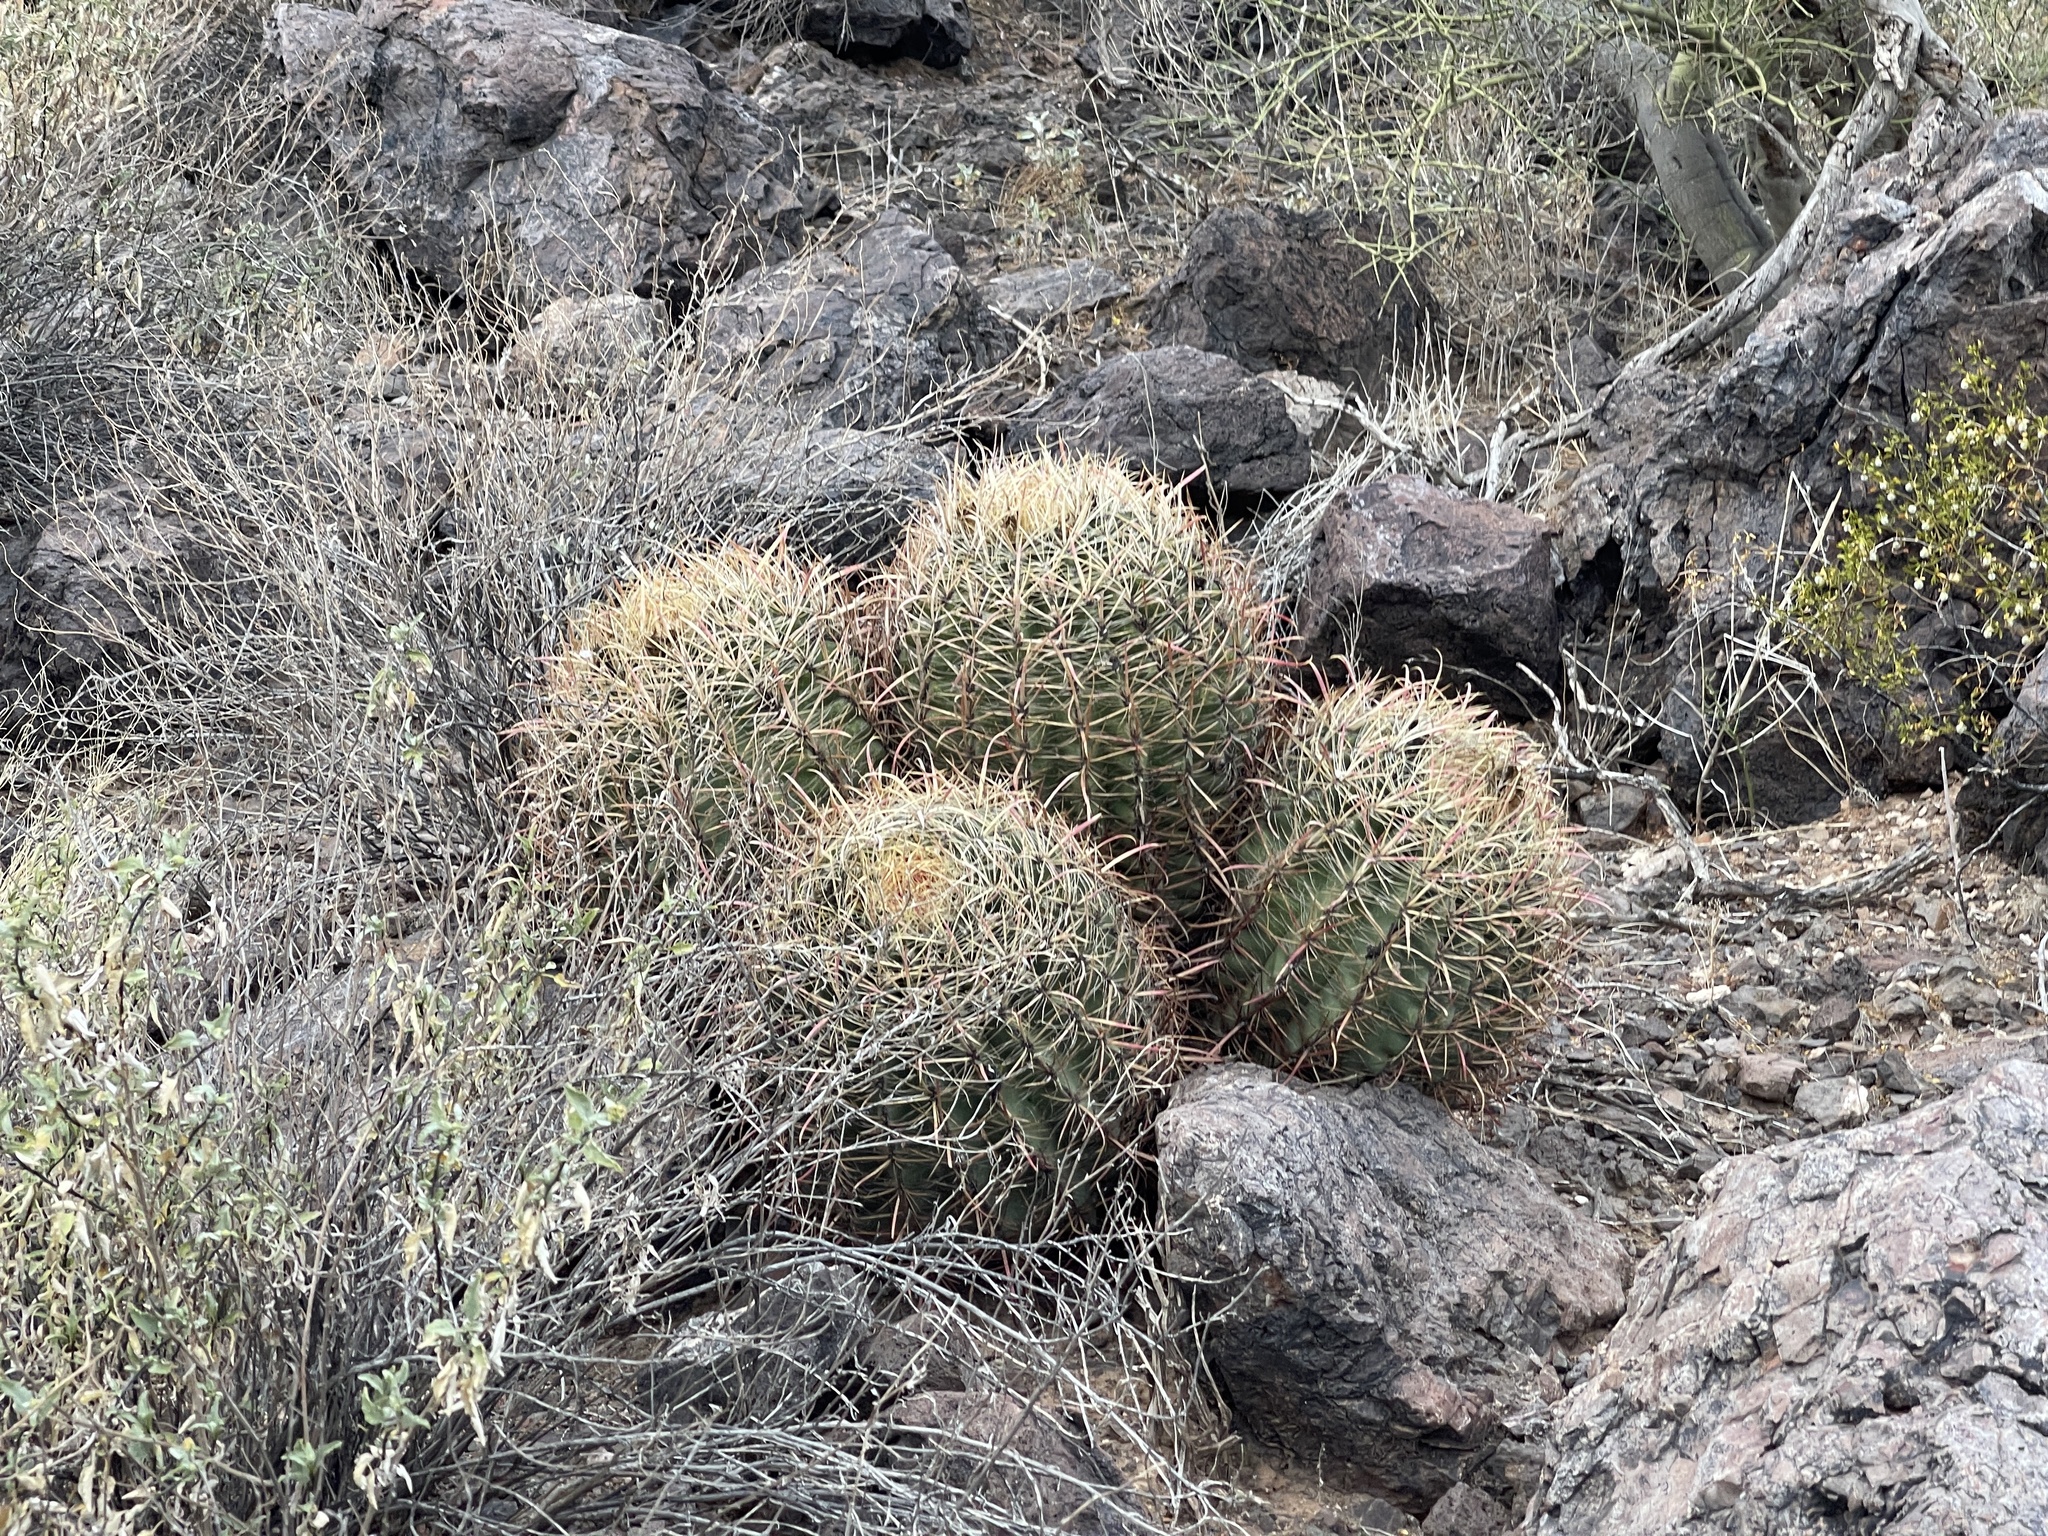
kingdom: Plantae
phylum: Tracheophyta
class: Magnoliopsida
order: Caryophyllales
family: Cactaceae
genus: Ferocactus
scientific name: Ferocactus cylindraceus
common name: California barrel cactus
